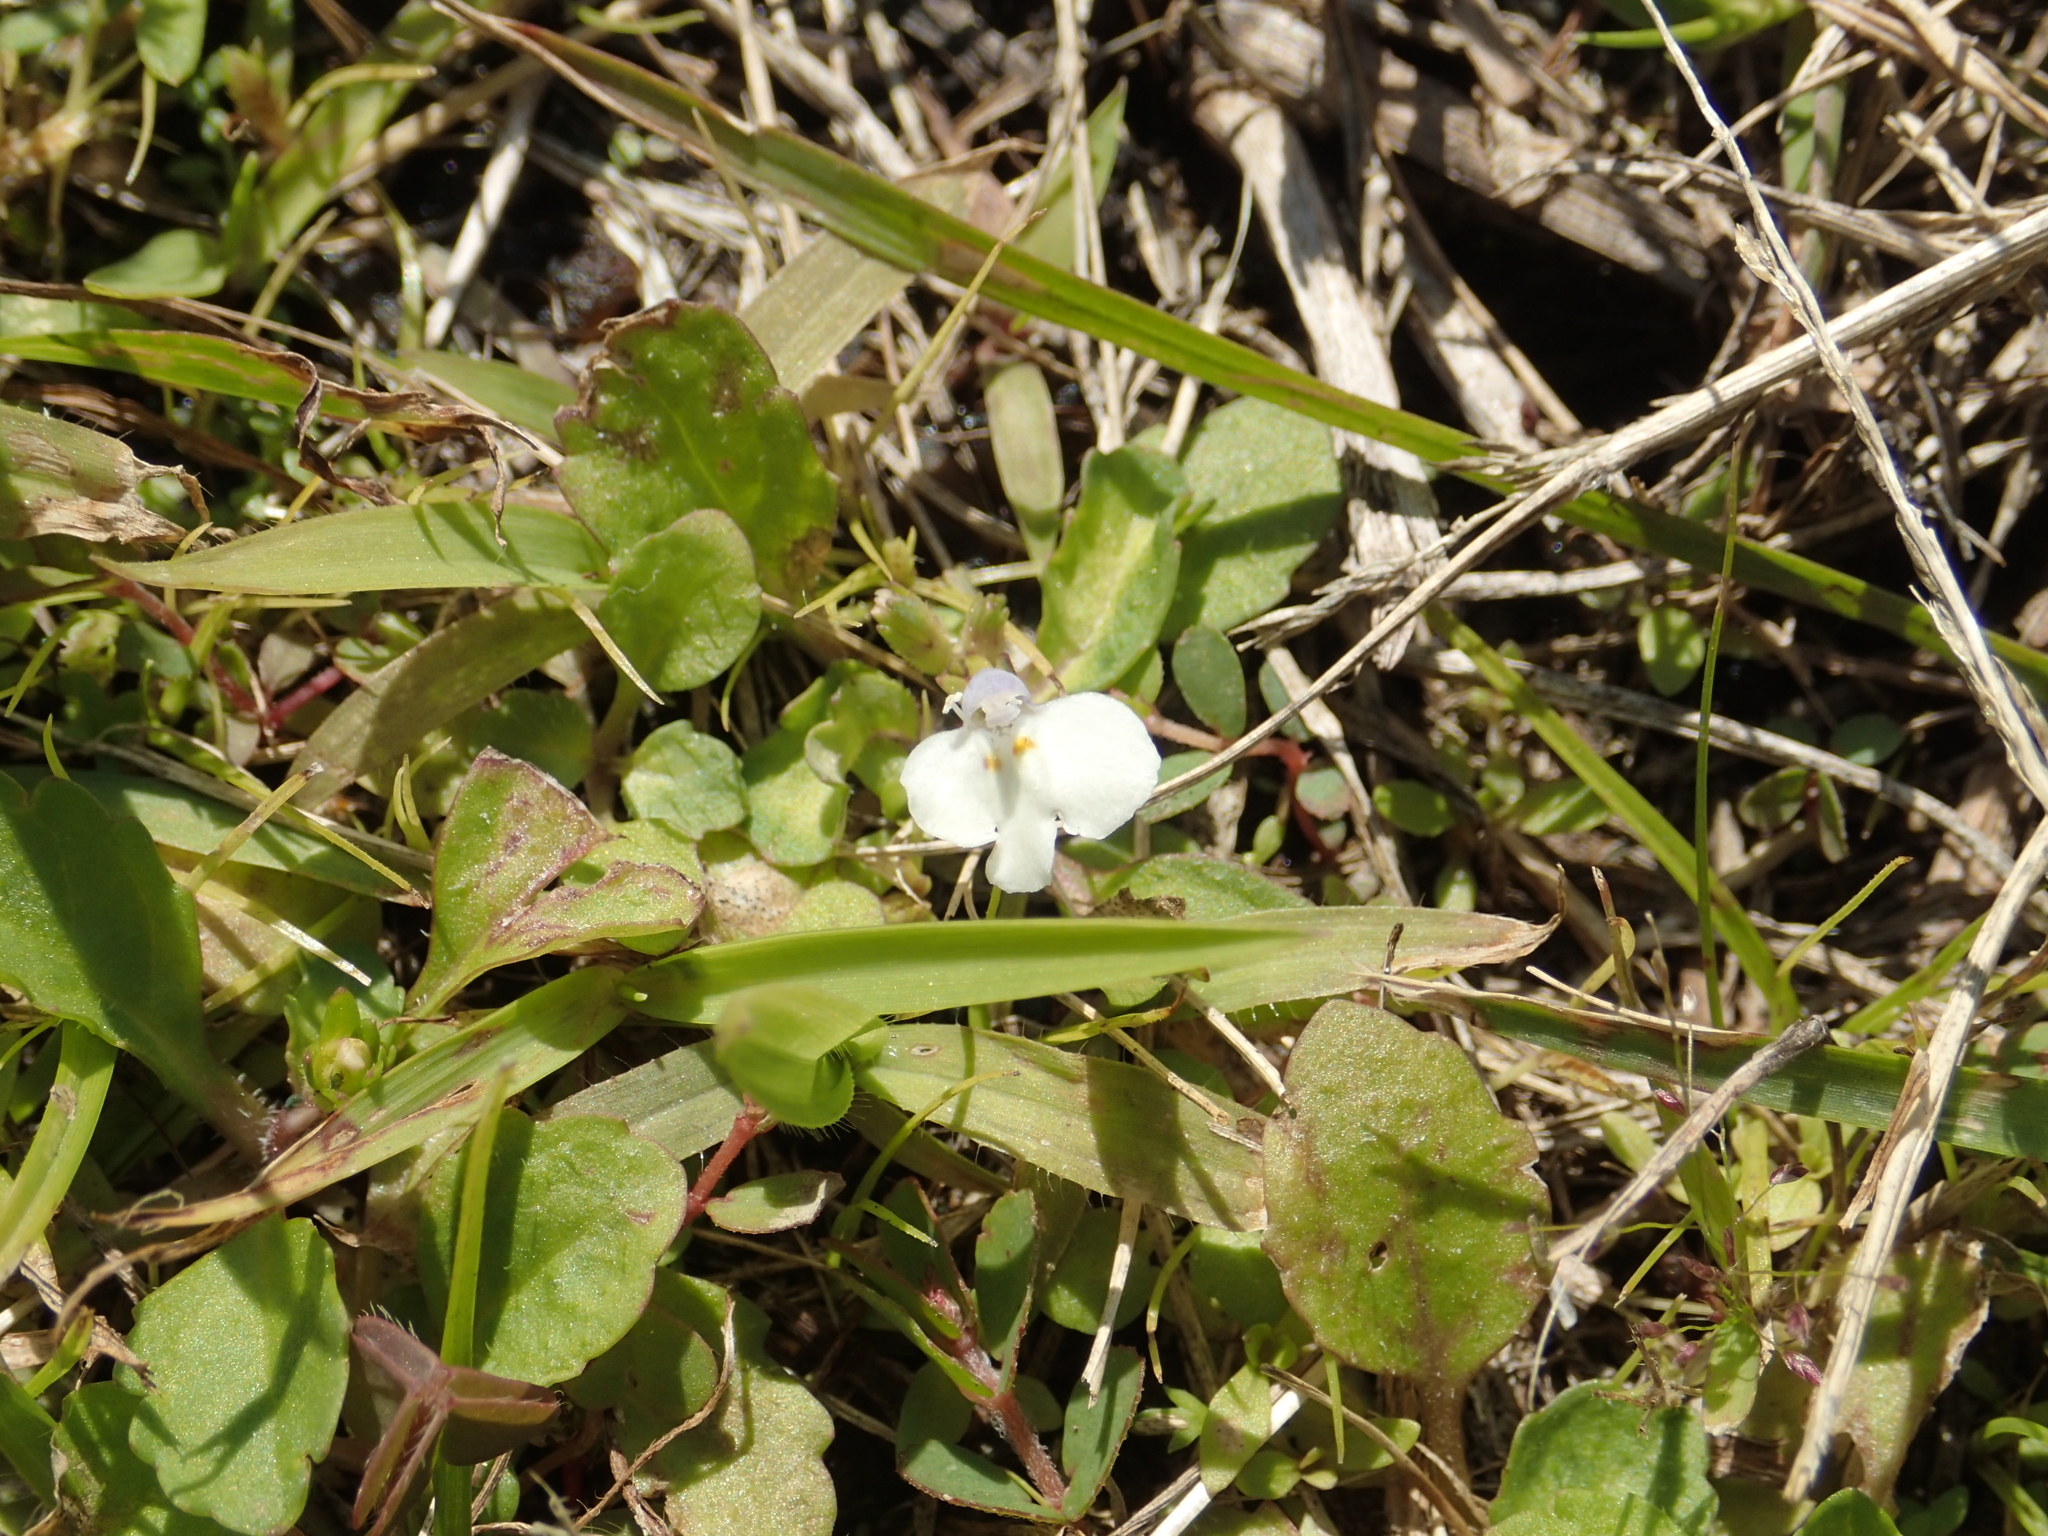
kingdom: Plantae
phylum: Tracheophyta
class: Magnoliopsida
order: Lamiales
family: Mazaceae
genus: Mazus
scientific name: Mazus pumilus
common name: Japanese mazus
